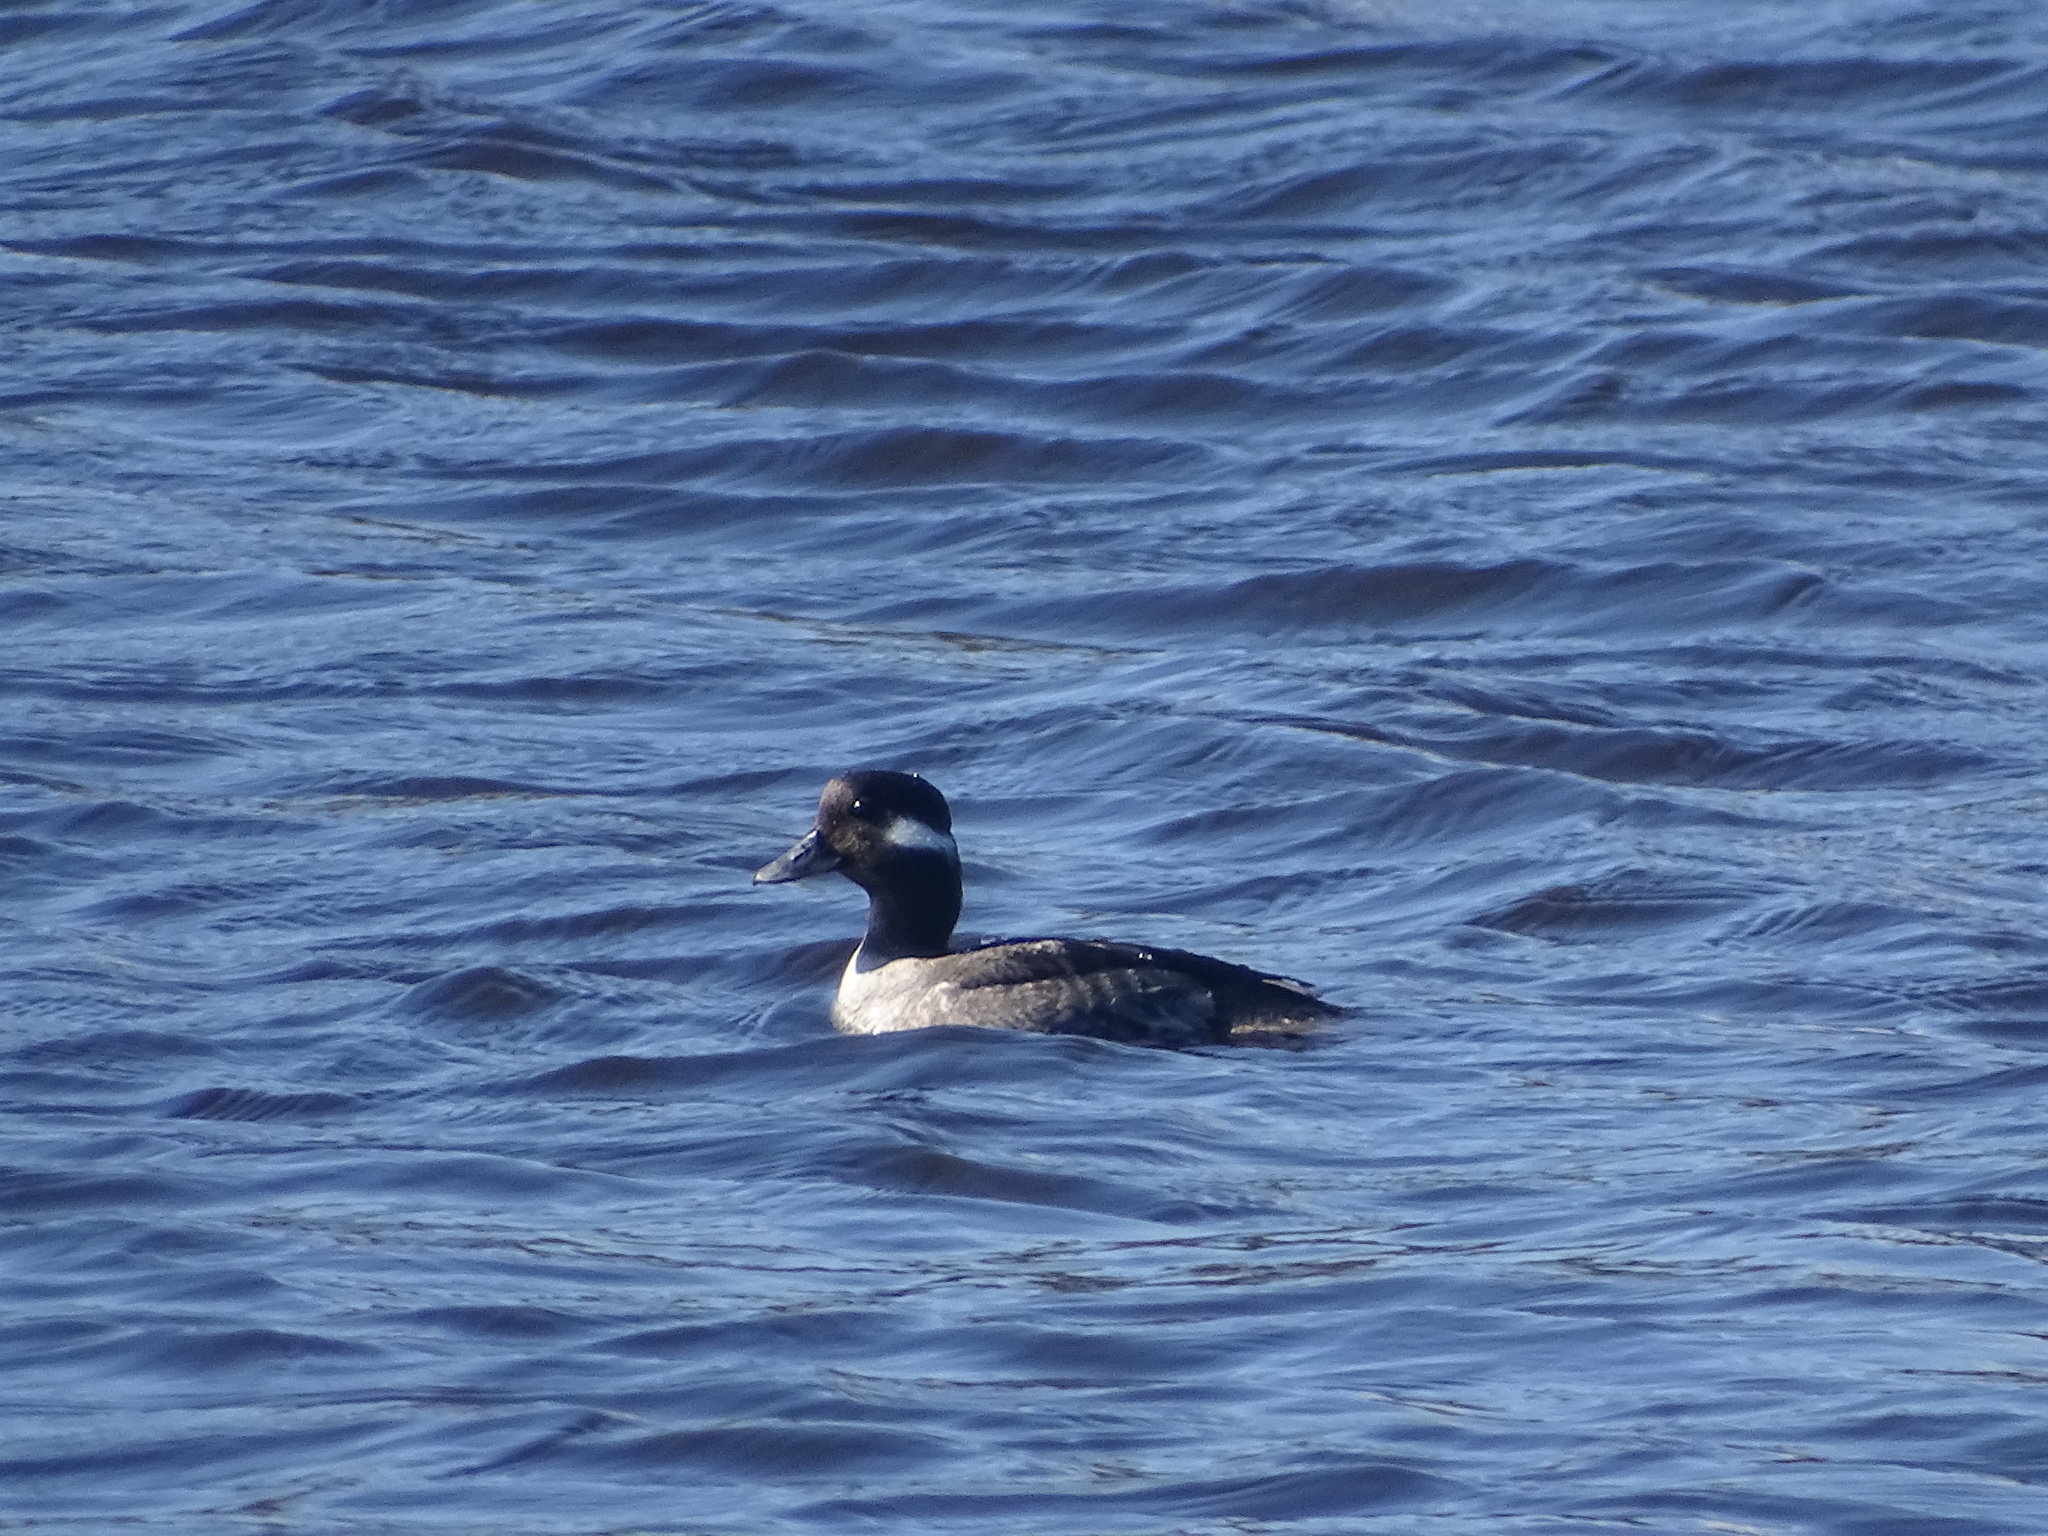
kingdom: Animalia
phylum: Chordata
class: Aves
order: Anseriformes
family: Anatidae
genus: Bucephala
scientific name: Bucephala albeola
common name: Bufflehead
